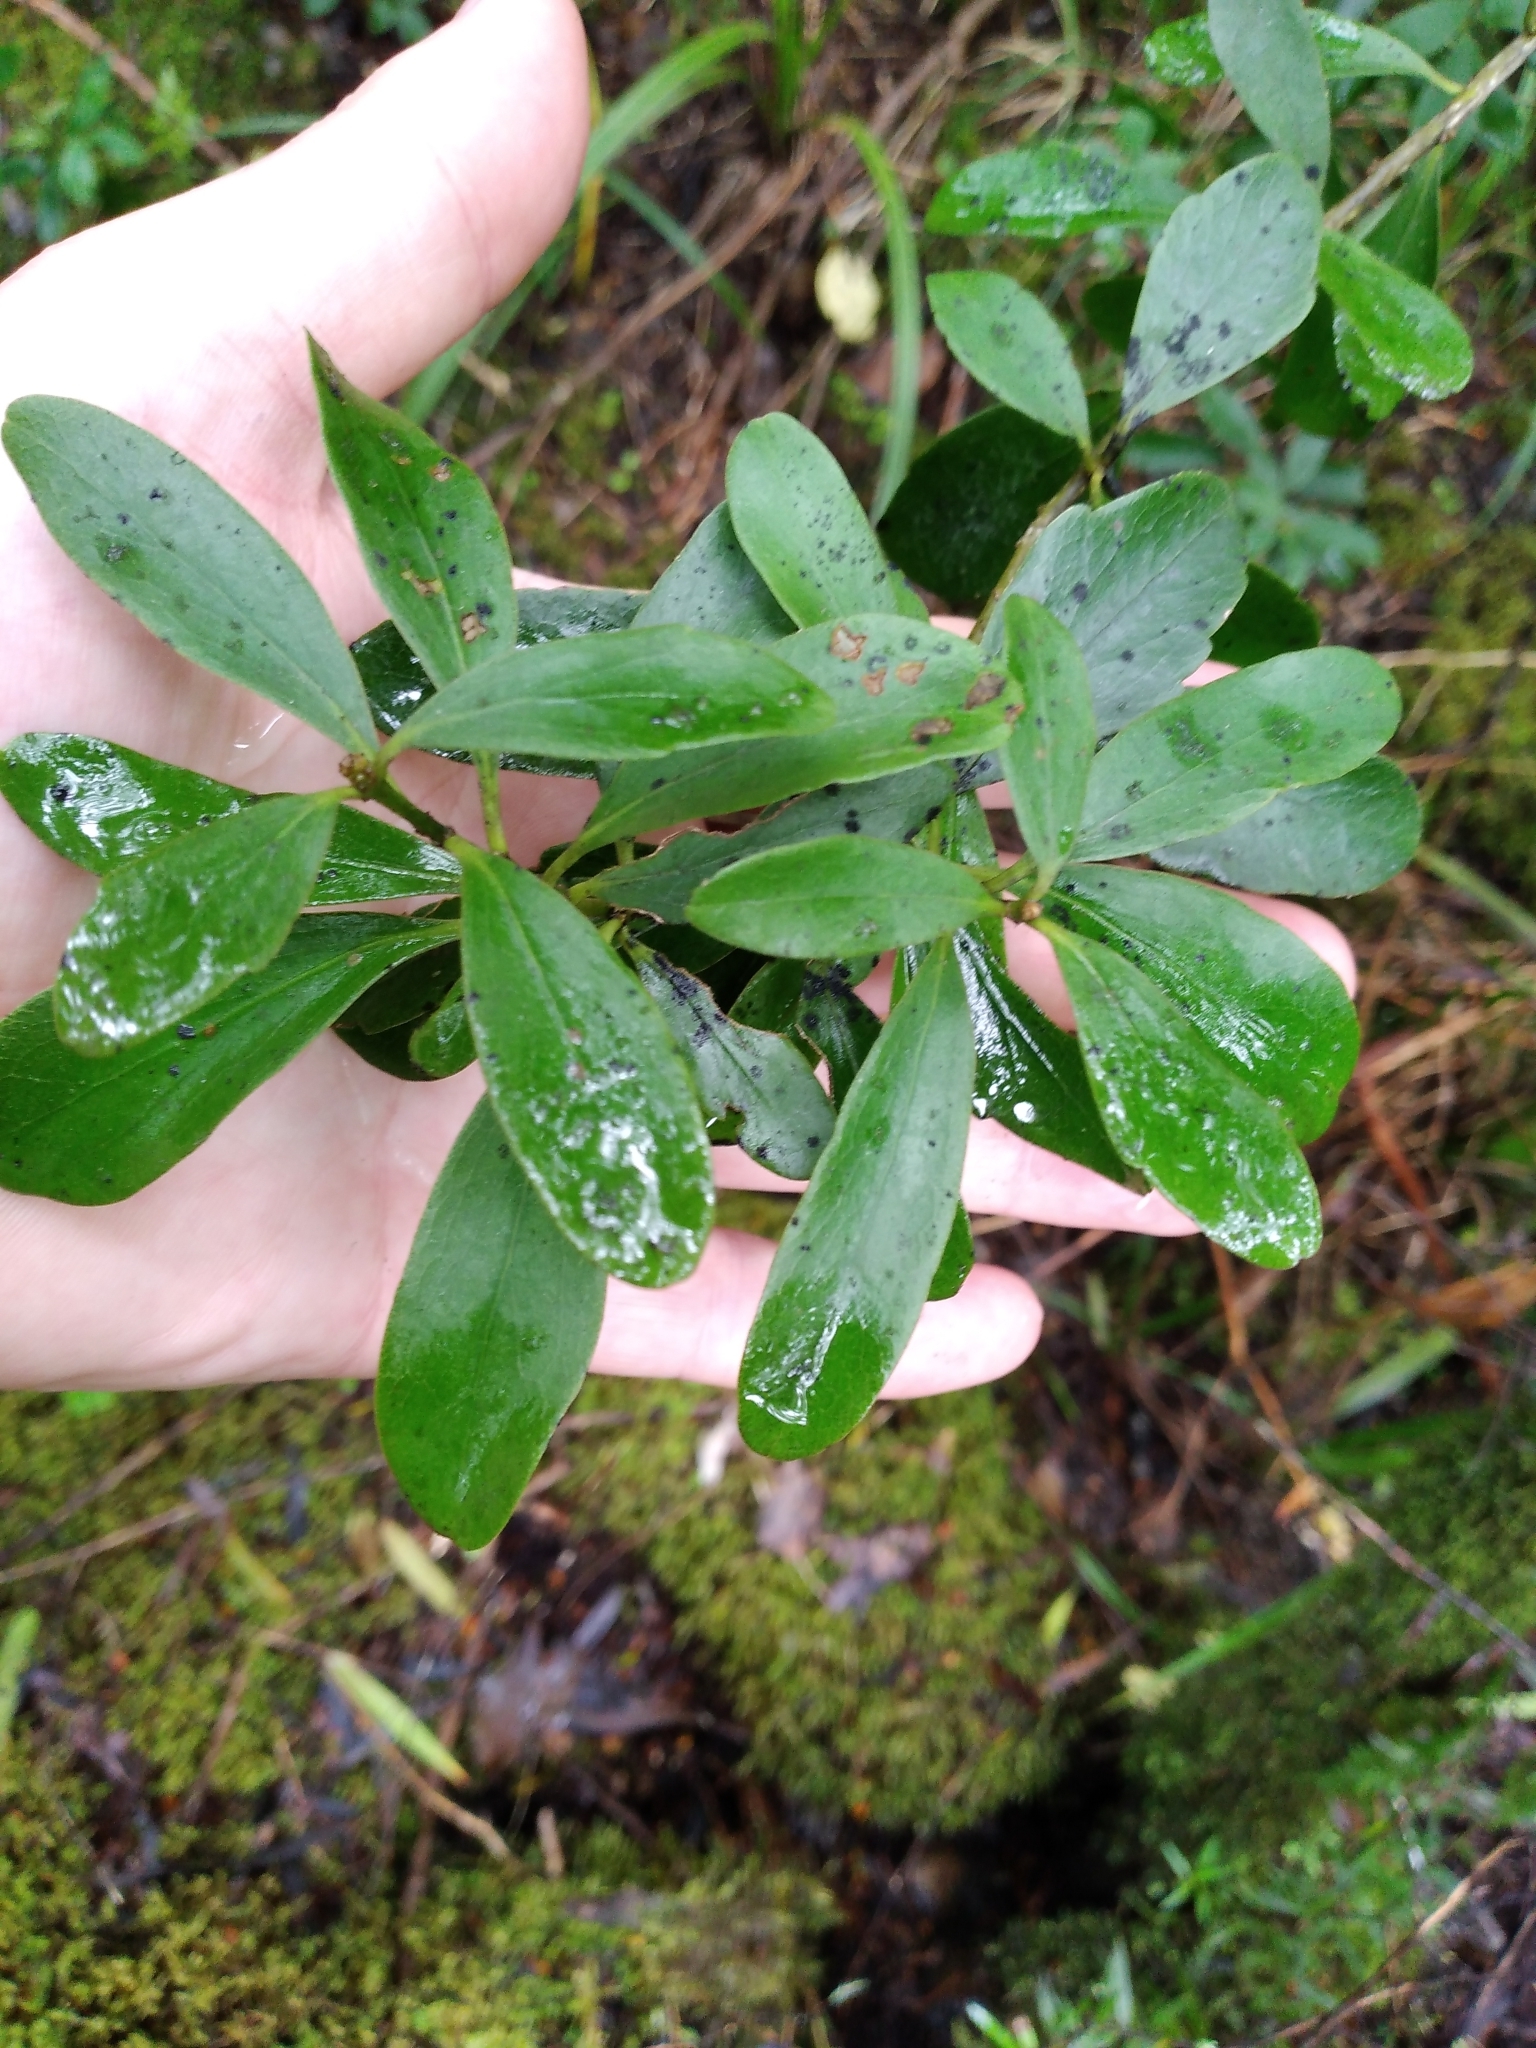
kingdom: Plantae
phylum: Tracheophyta
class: Magnoliopsida
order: Malpighiales
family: Violaceae
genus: Melicytus
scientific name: Melicytus obovatus
